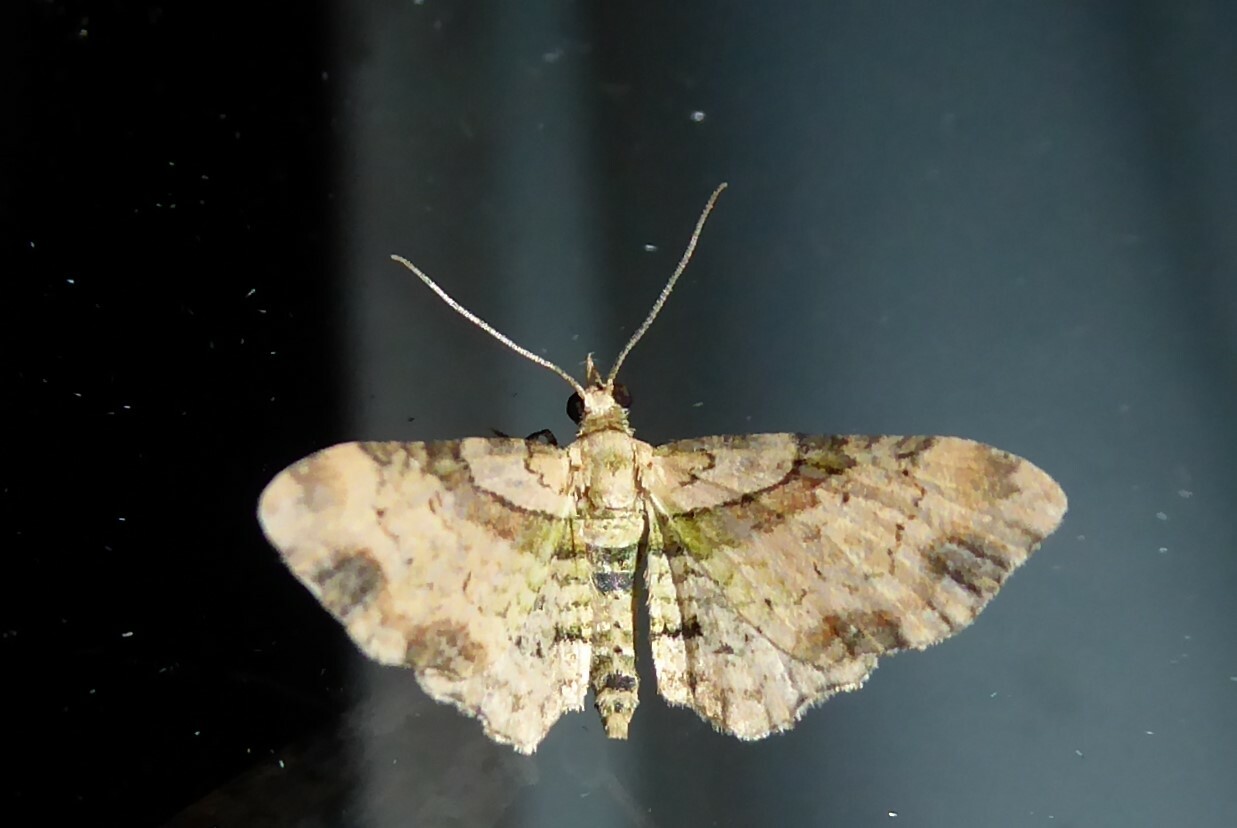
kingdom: Animalia
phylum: Arthropoda
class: Insecta
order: Lepidoptera
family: Geometridae
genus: Chloroclystis
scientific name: Chloroclystis
